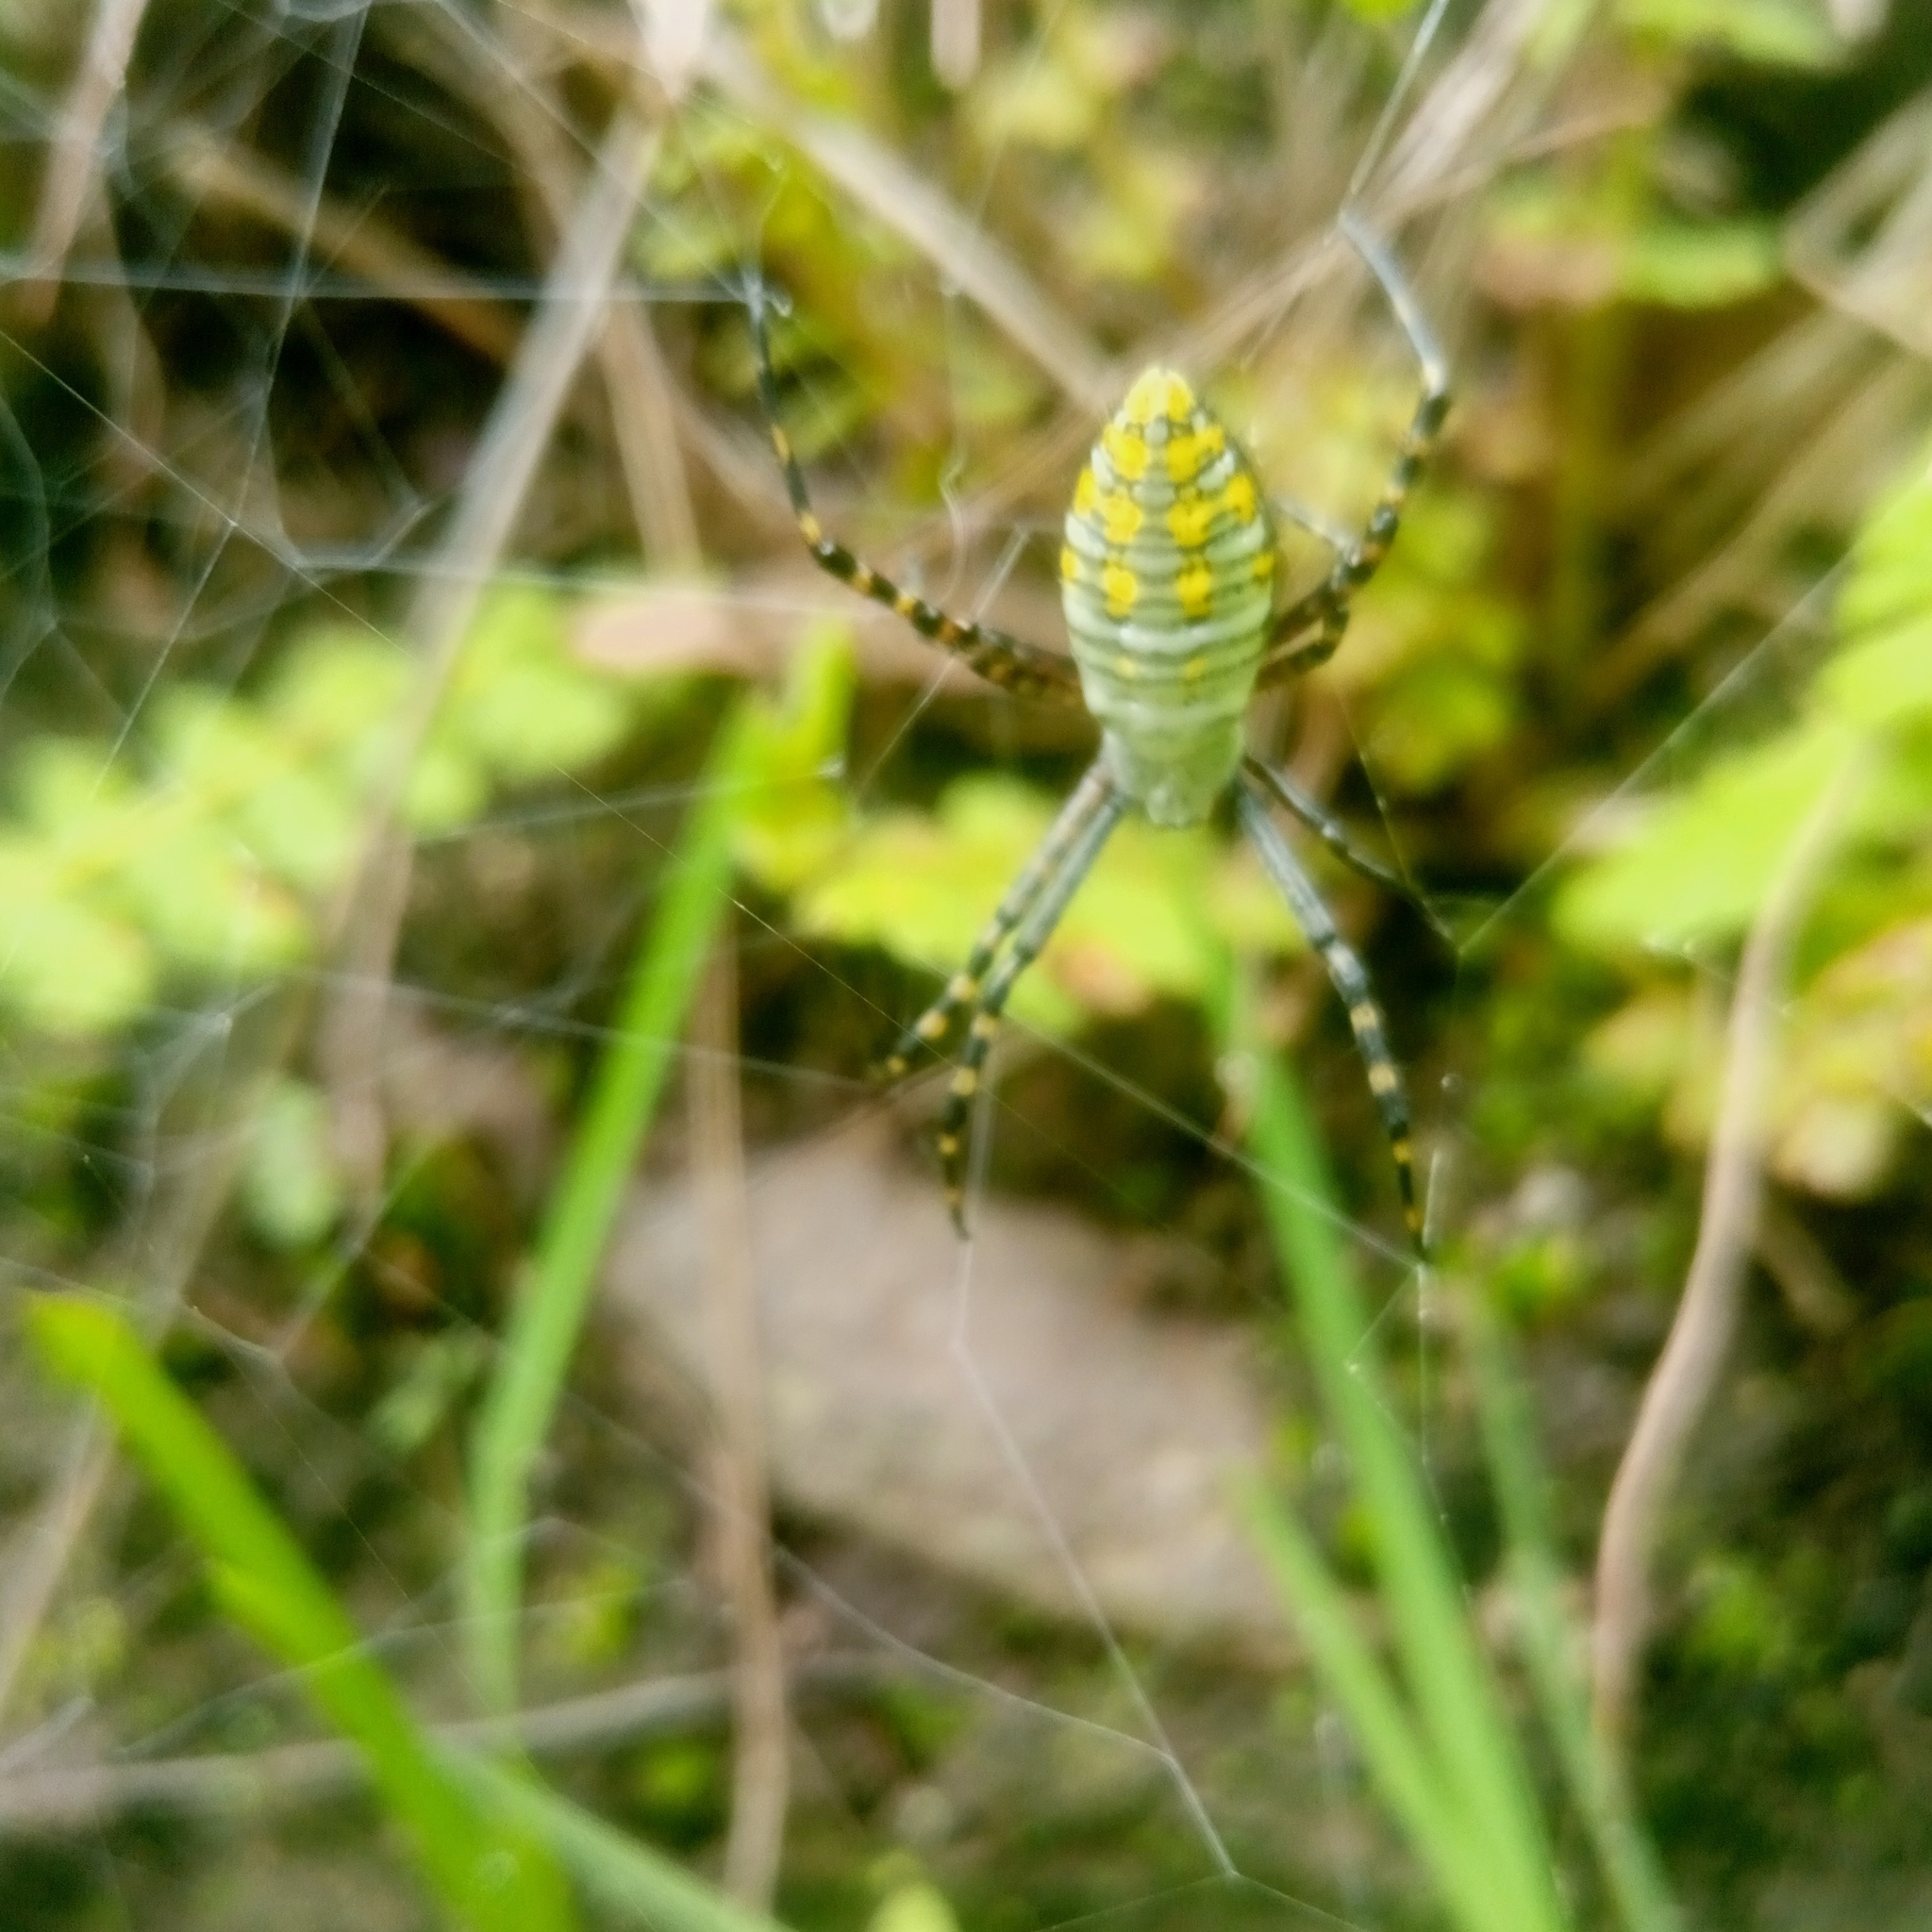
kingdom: Animalia
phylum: Arthropoda
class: Arachnida
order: Araneae
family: Araneidae
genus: Argiope
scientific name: Argiope trifasciata
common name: Banded garden spider
